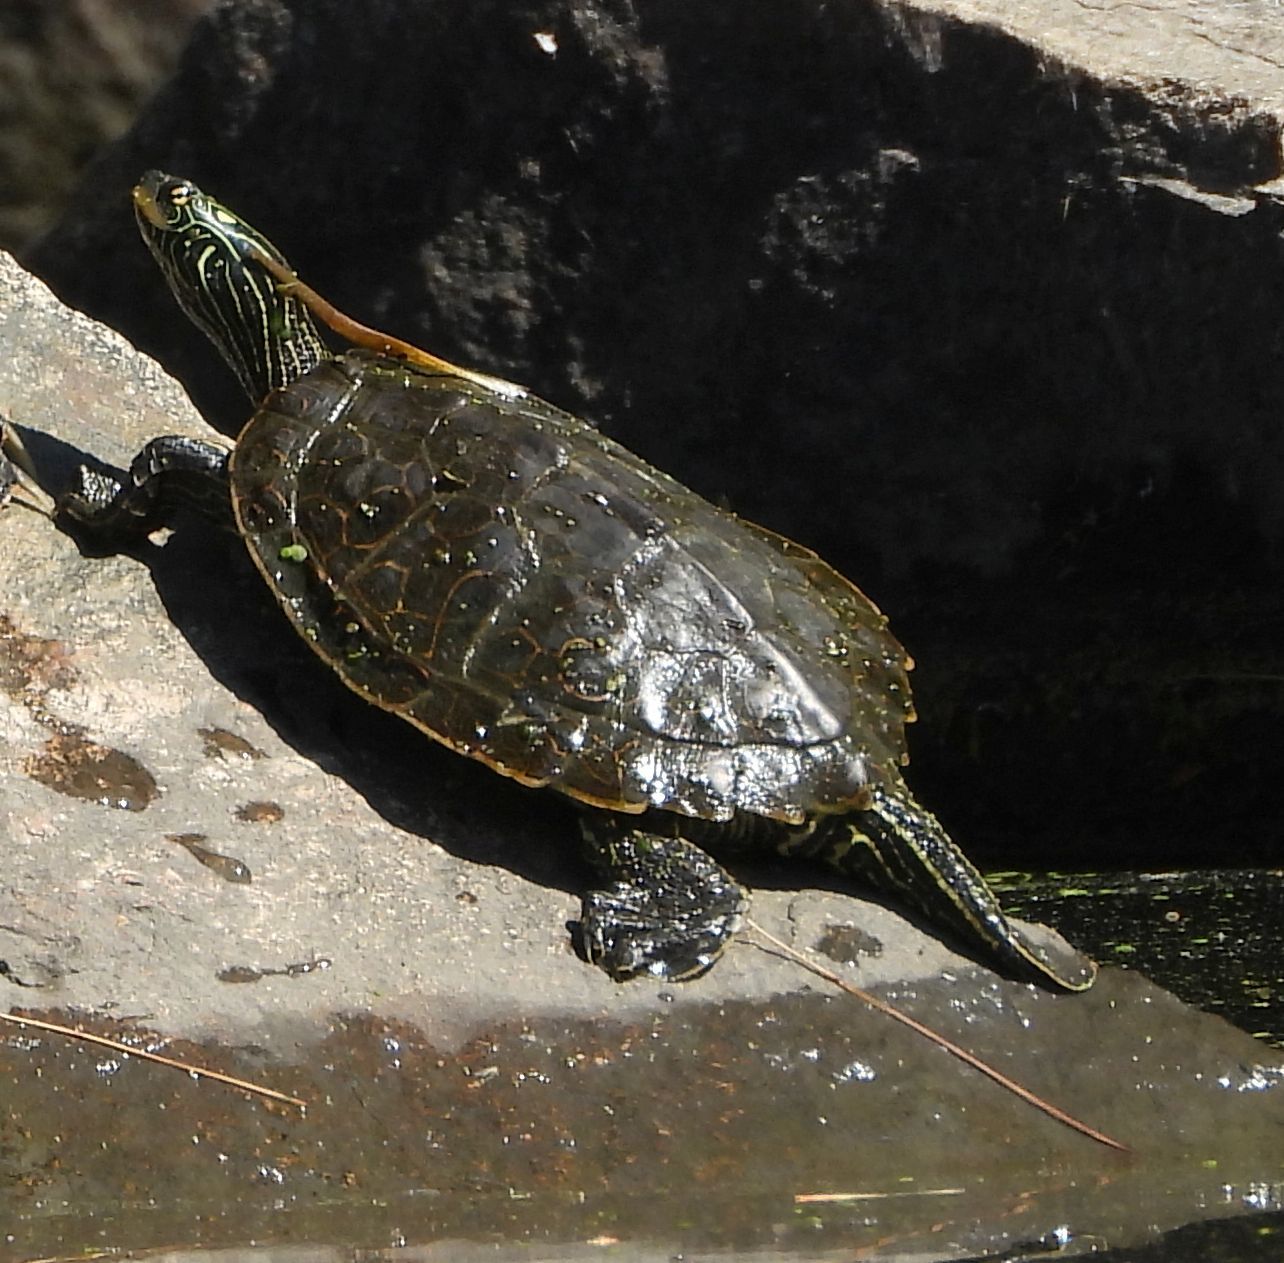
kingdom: Animalia
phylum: Chordata
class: Testudines
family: Emydidae
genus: Graptemys
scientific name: Graptemys geographica
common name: Common map turtle
